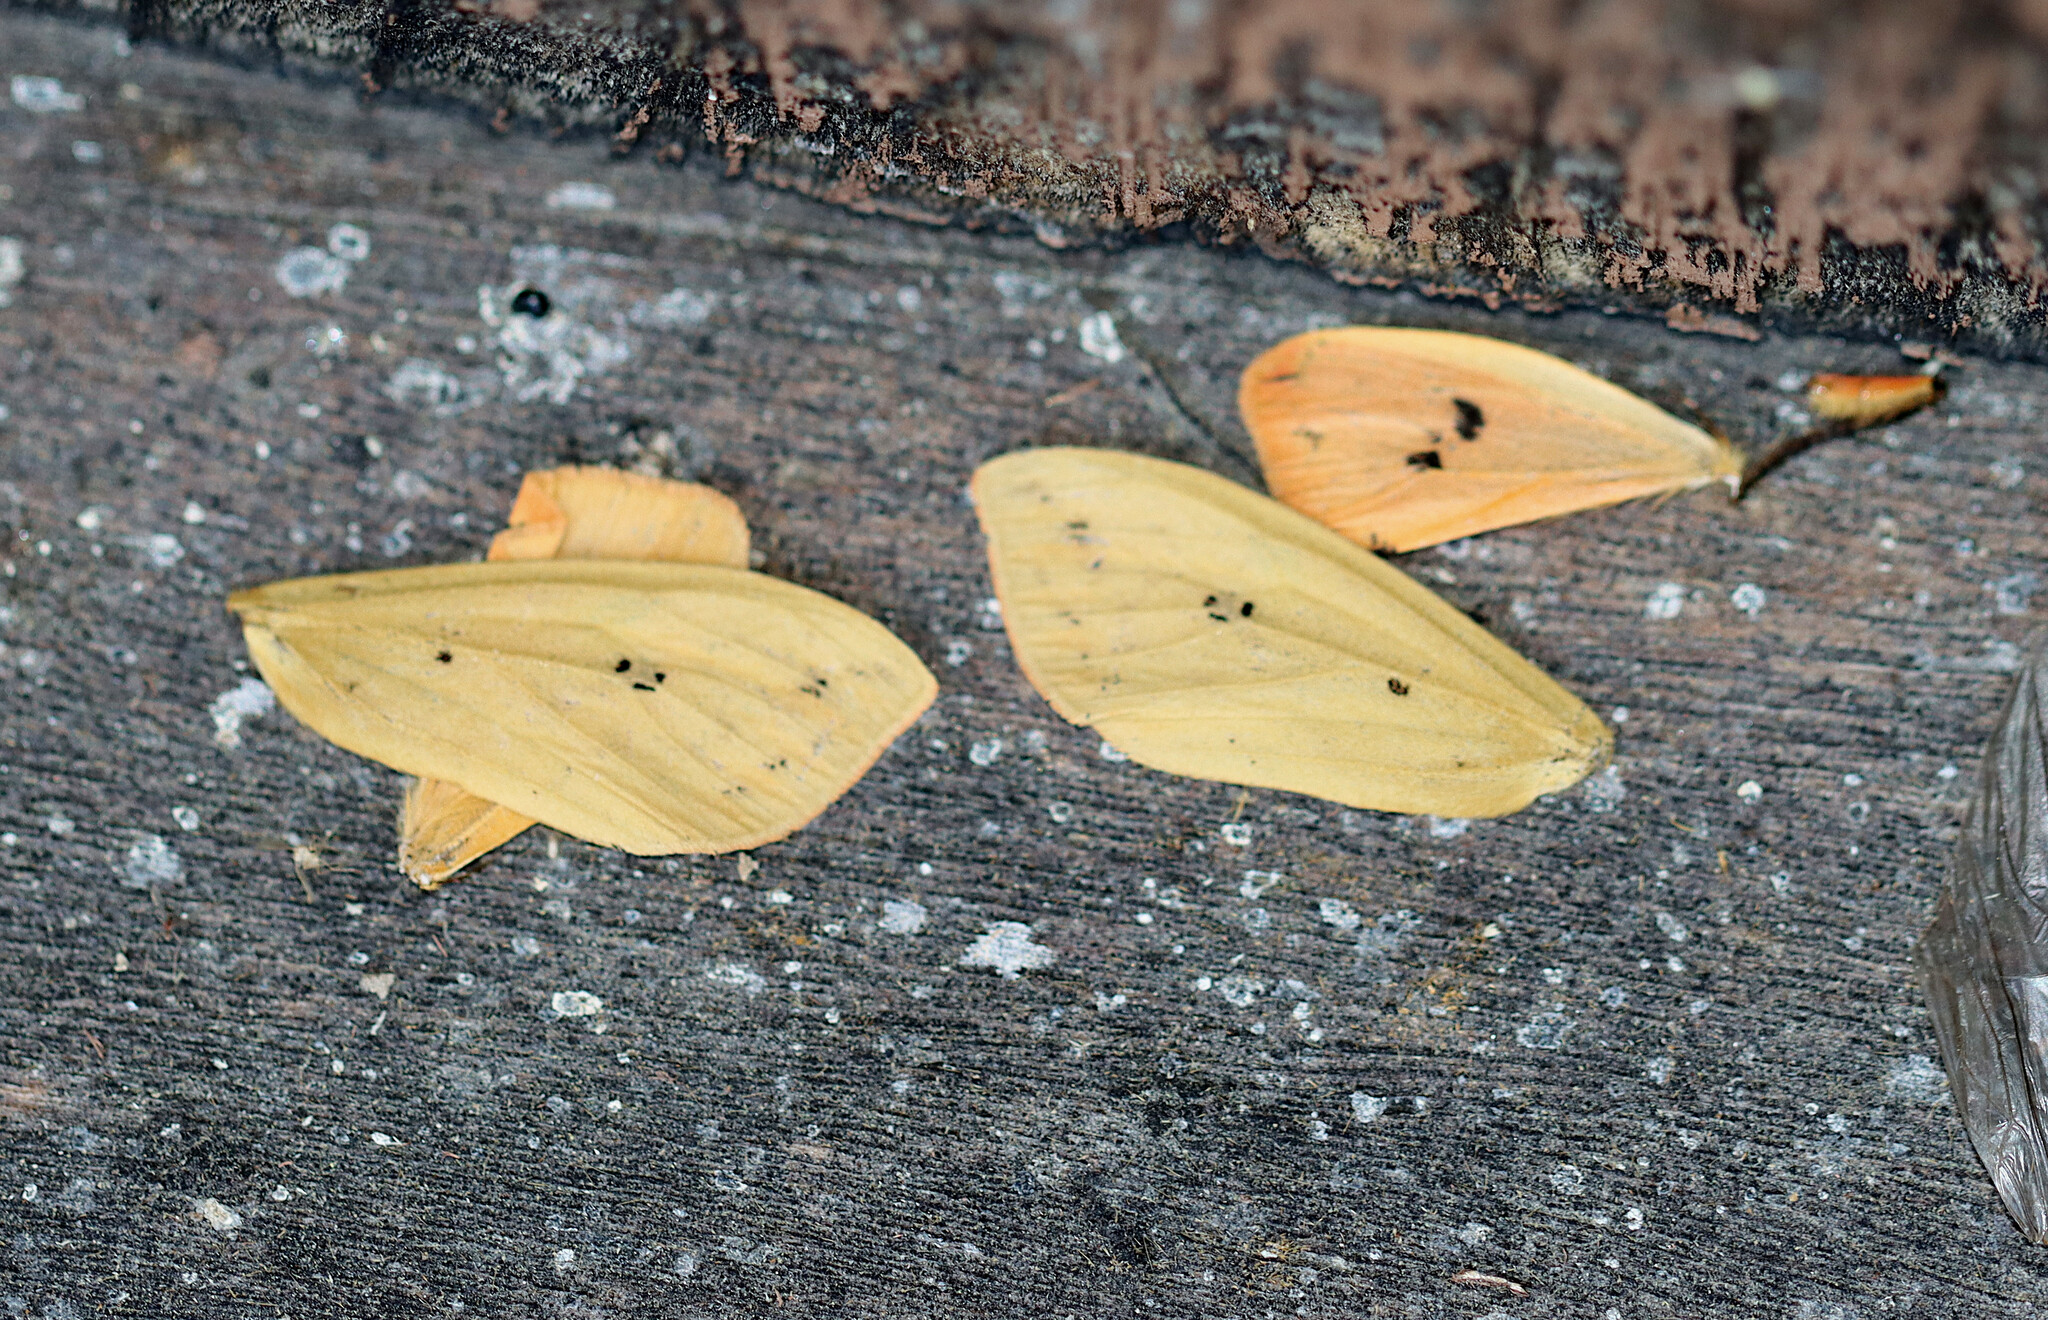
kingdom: Animalia
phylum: Arthropoda
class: Insecta
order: Lepidoptera
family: Erebidae
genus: Pyrrharctia
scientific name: Pyrrharctia isabella
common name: Isabella tiger moth
